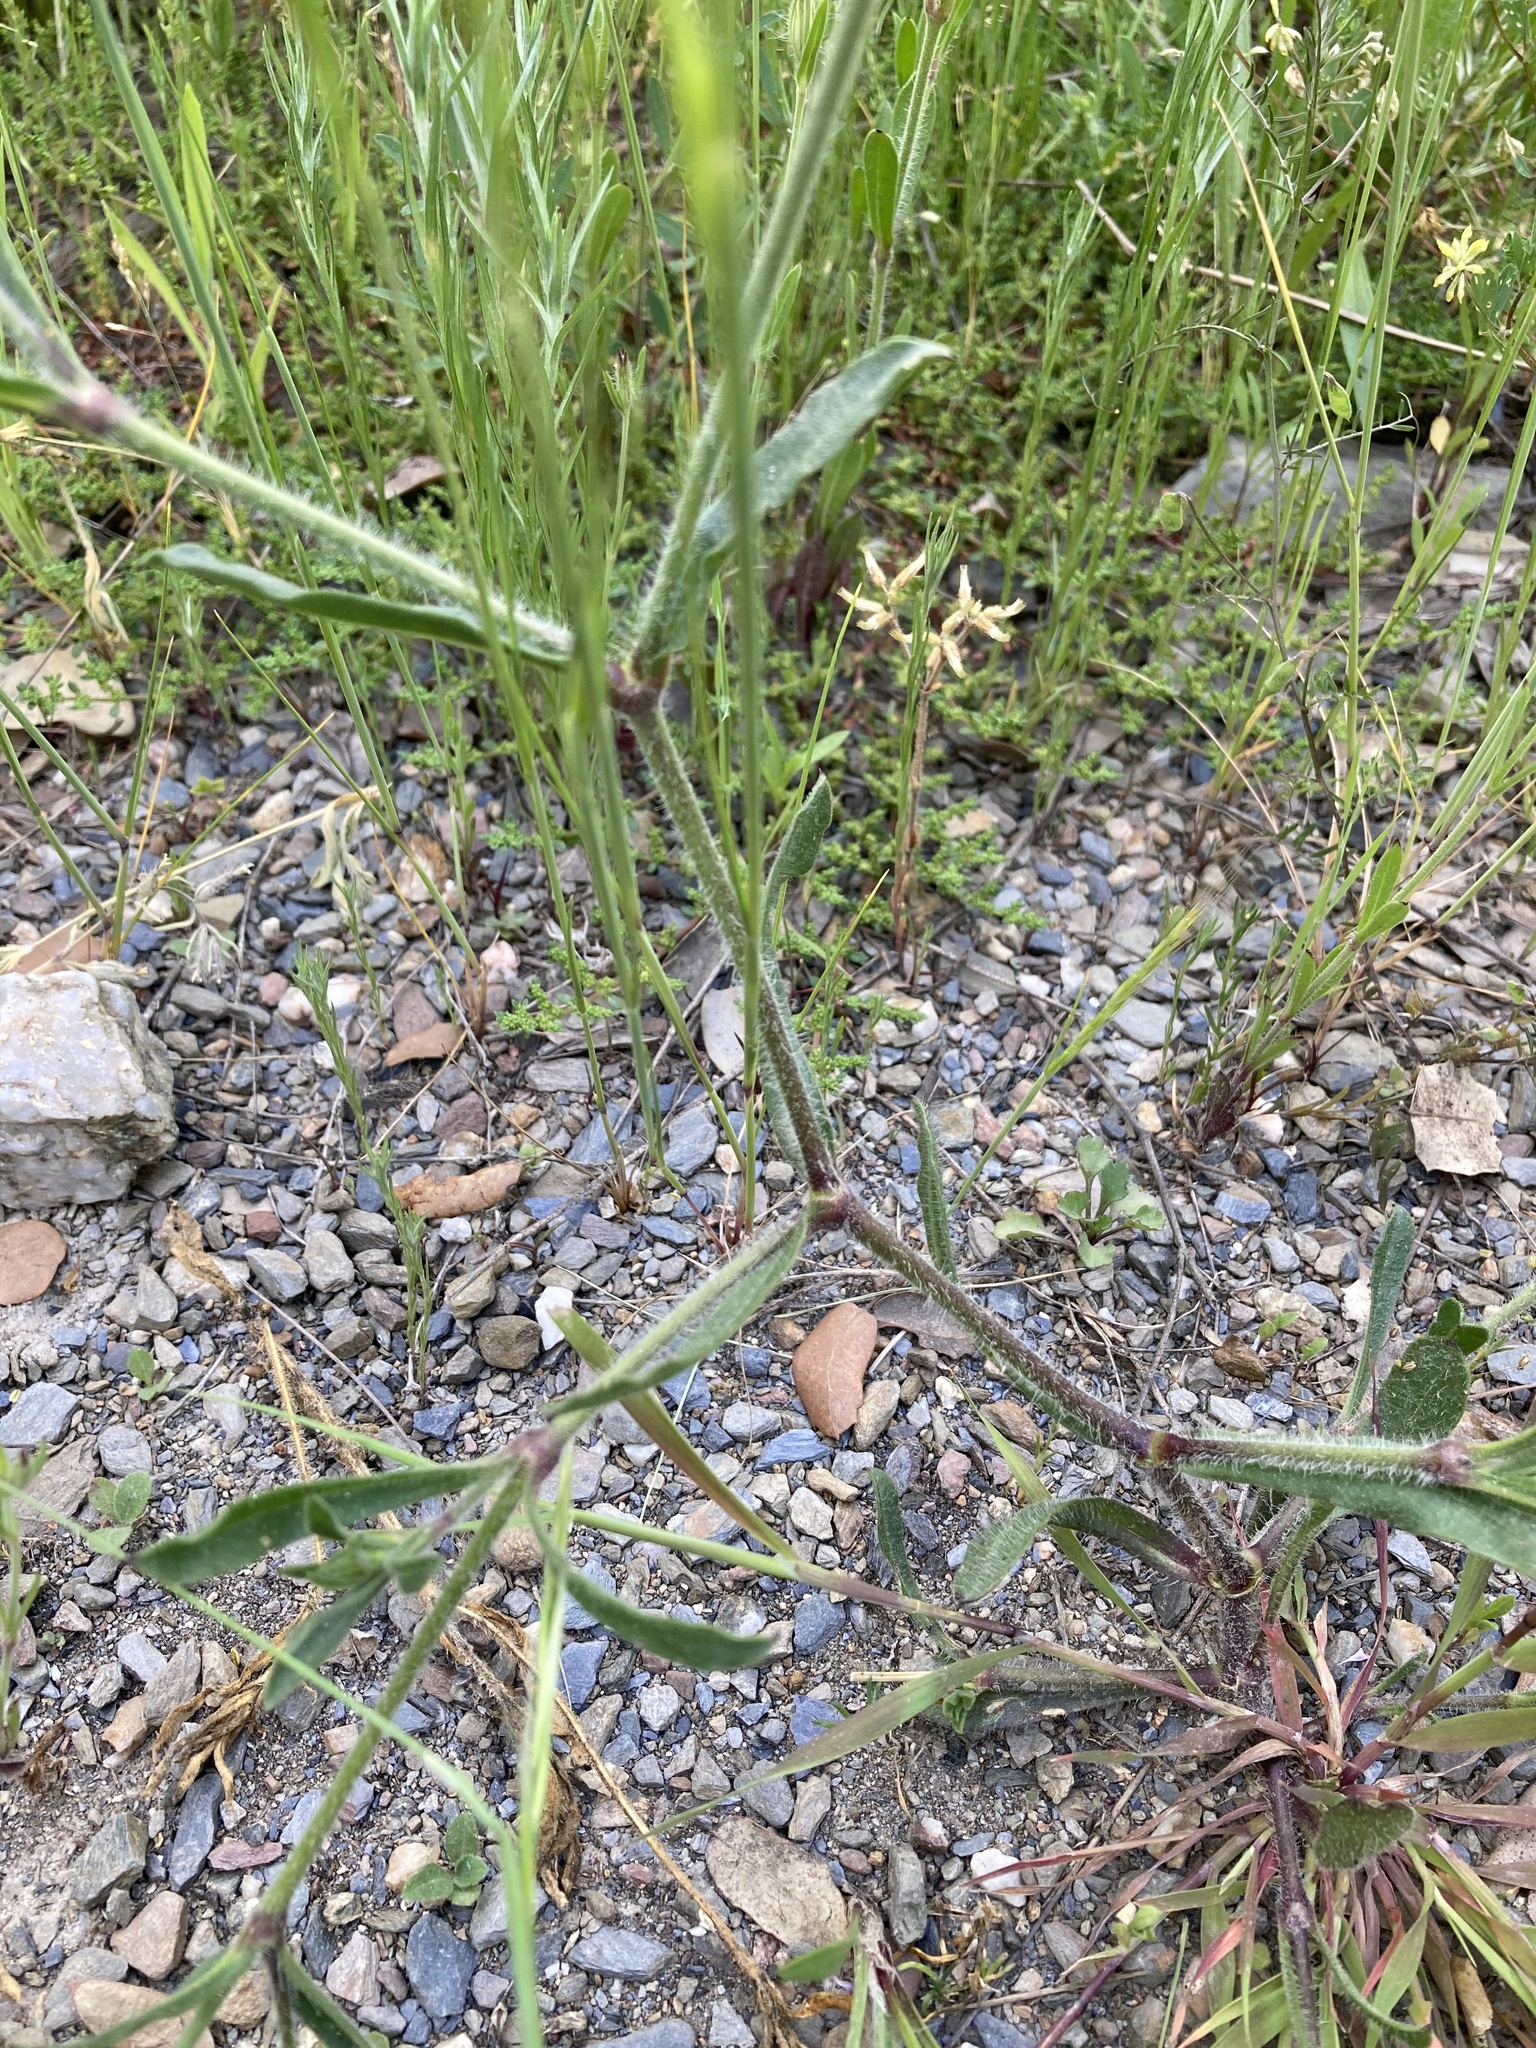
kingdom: Plantae
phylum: Tracheophyta
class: Magnoliopsida
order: Caryophyllales
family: Caryophyllaceae
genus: Silene
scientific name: Silene gallica
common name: Small-flowered catchfly
